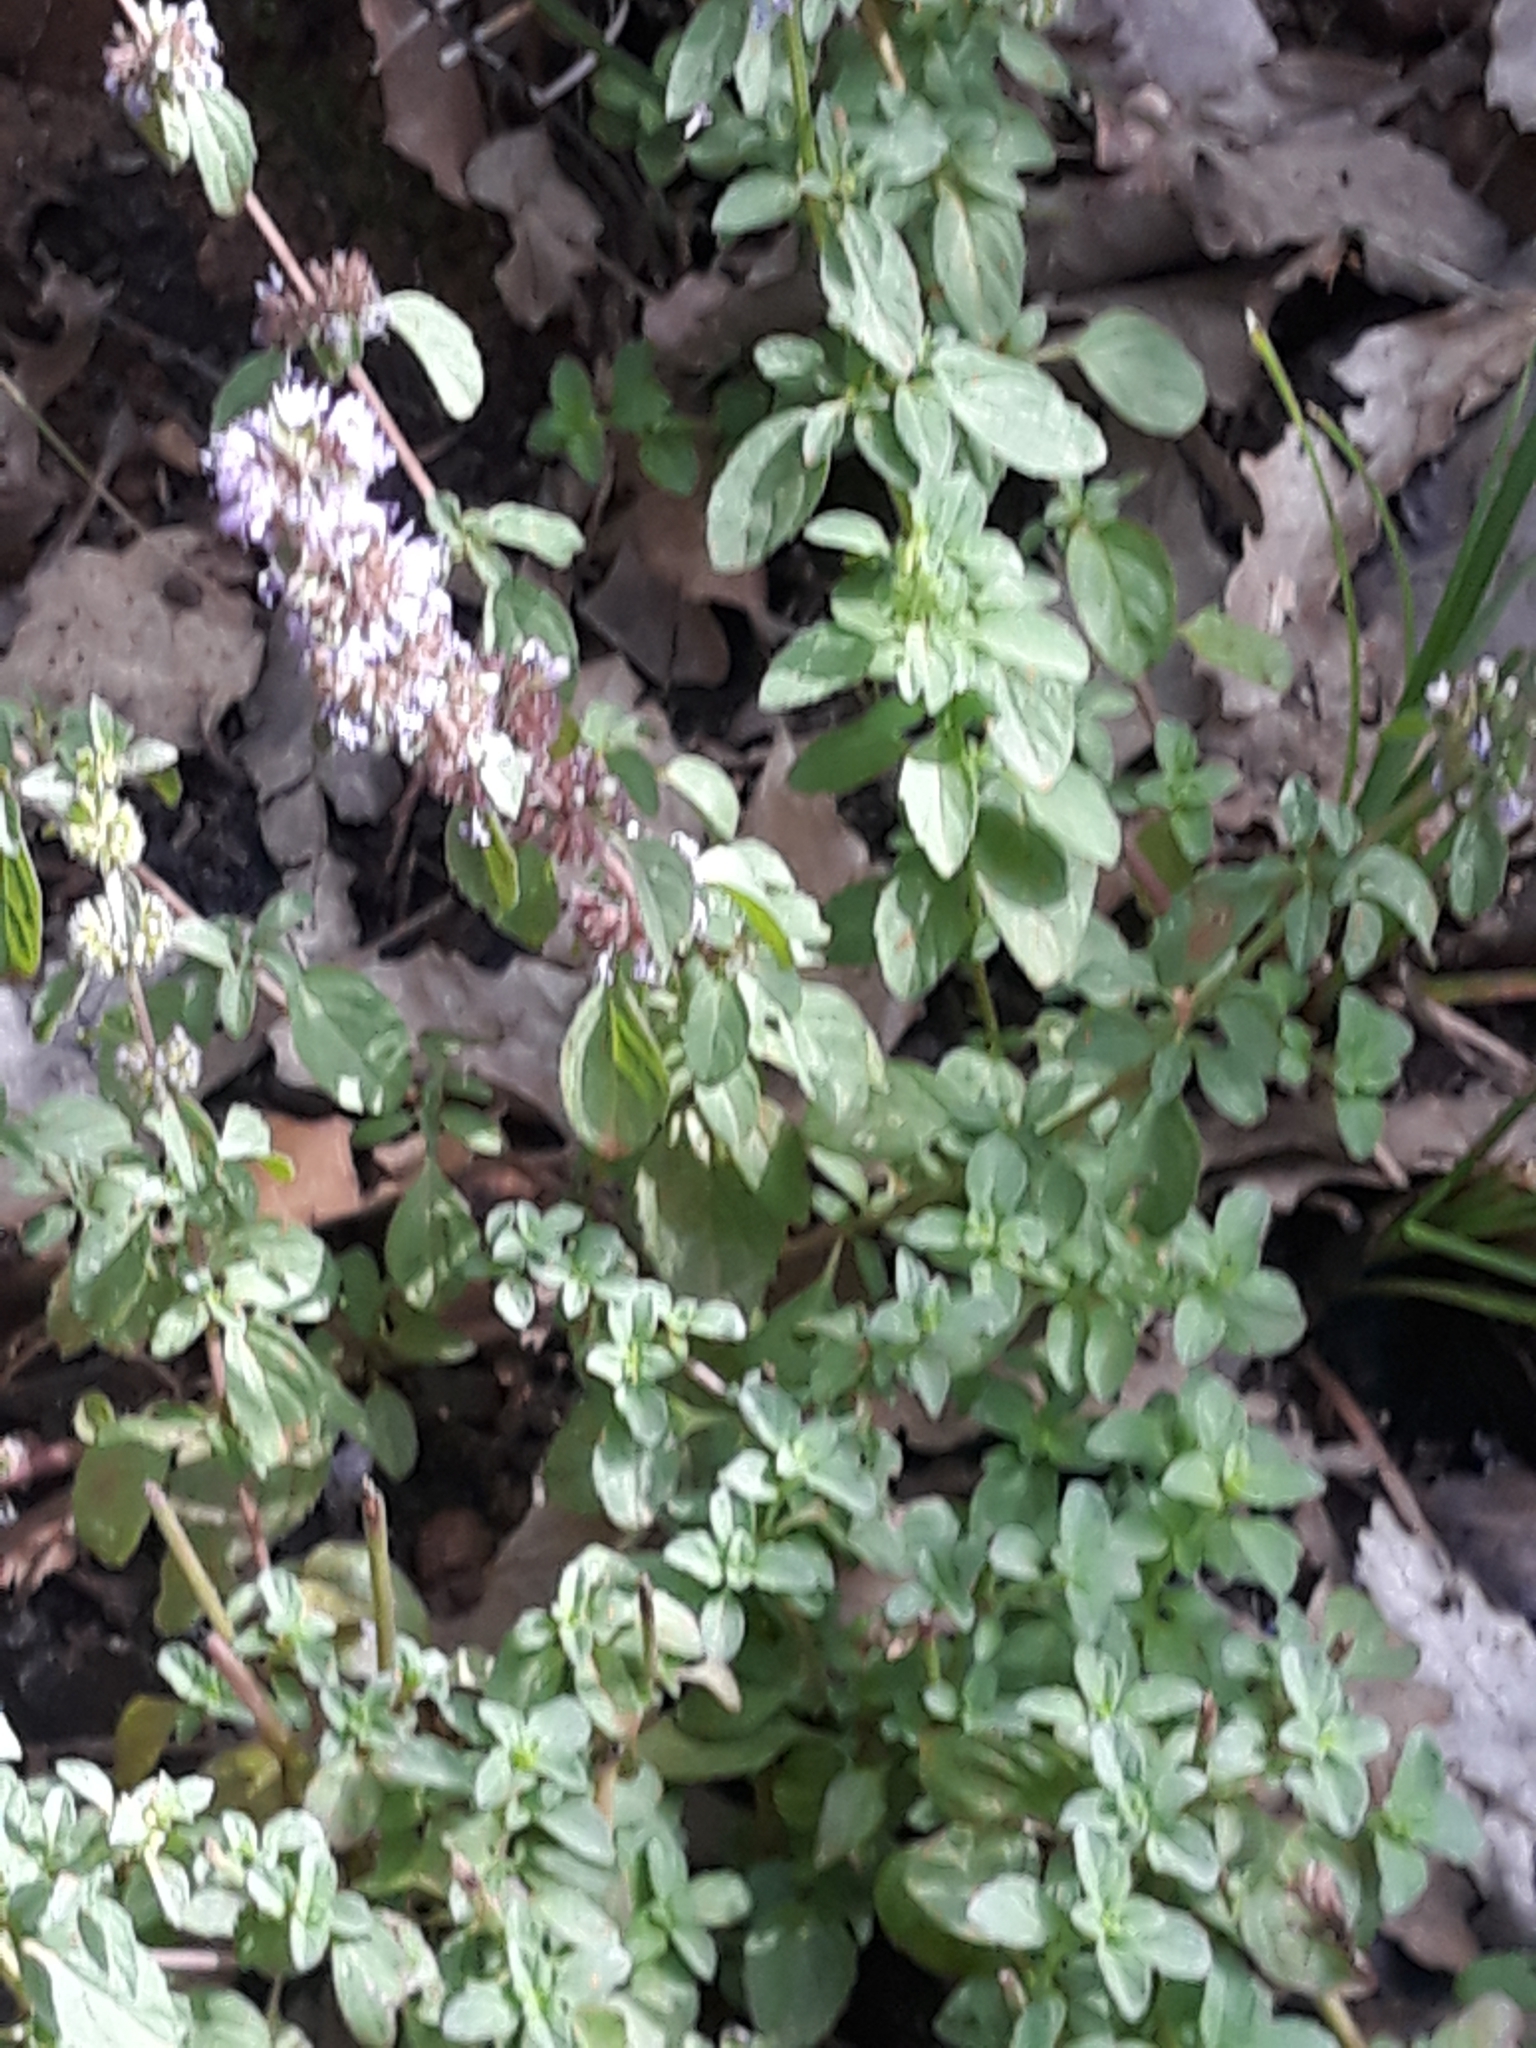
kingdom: Plantae
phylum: Tracheophyta
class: Magnoliopsida
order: Lamiales
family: Lamiaceae
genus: Mentha
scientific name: Mentha pulegium
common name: Pennyroyal
